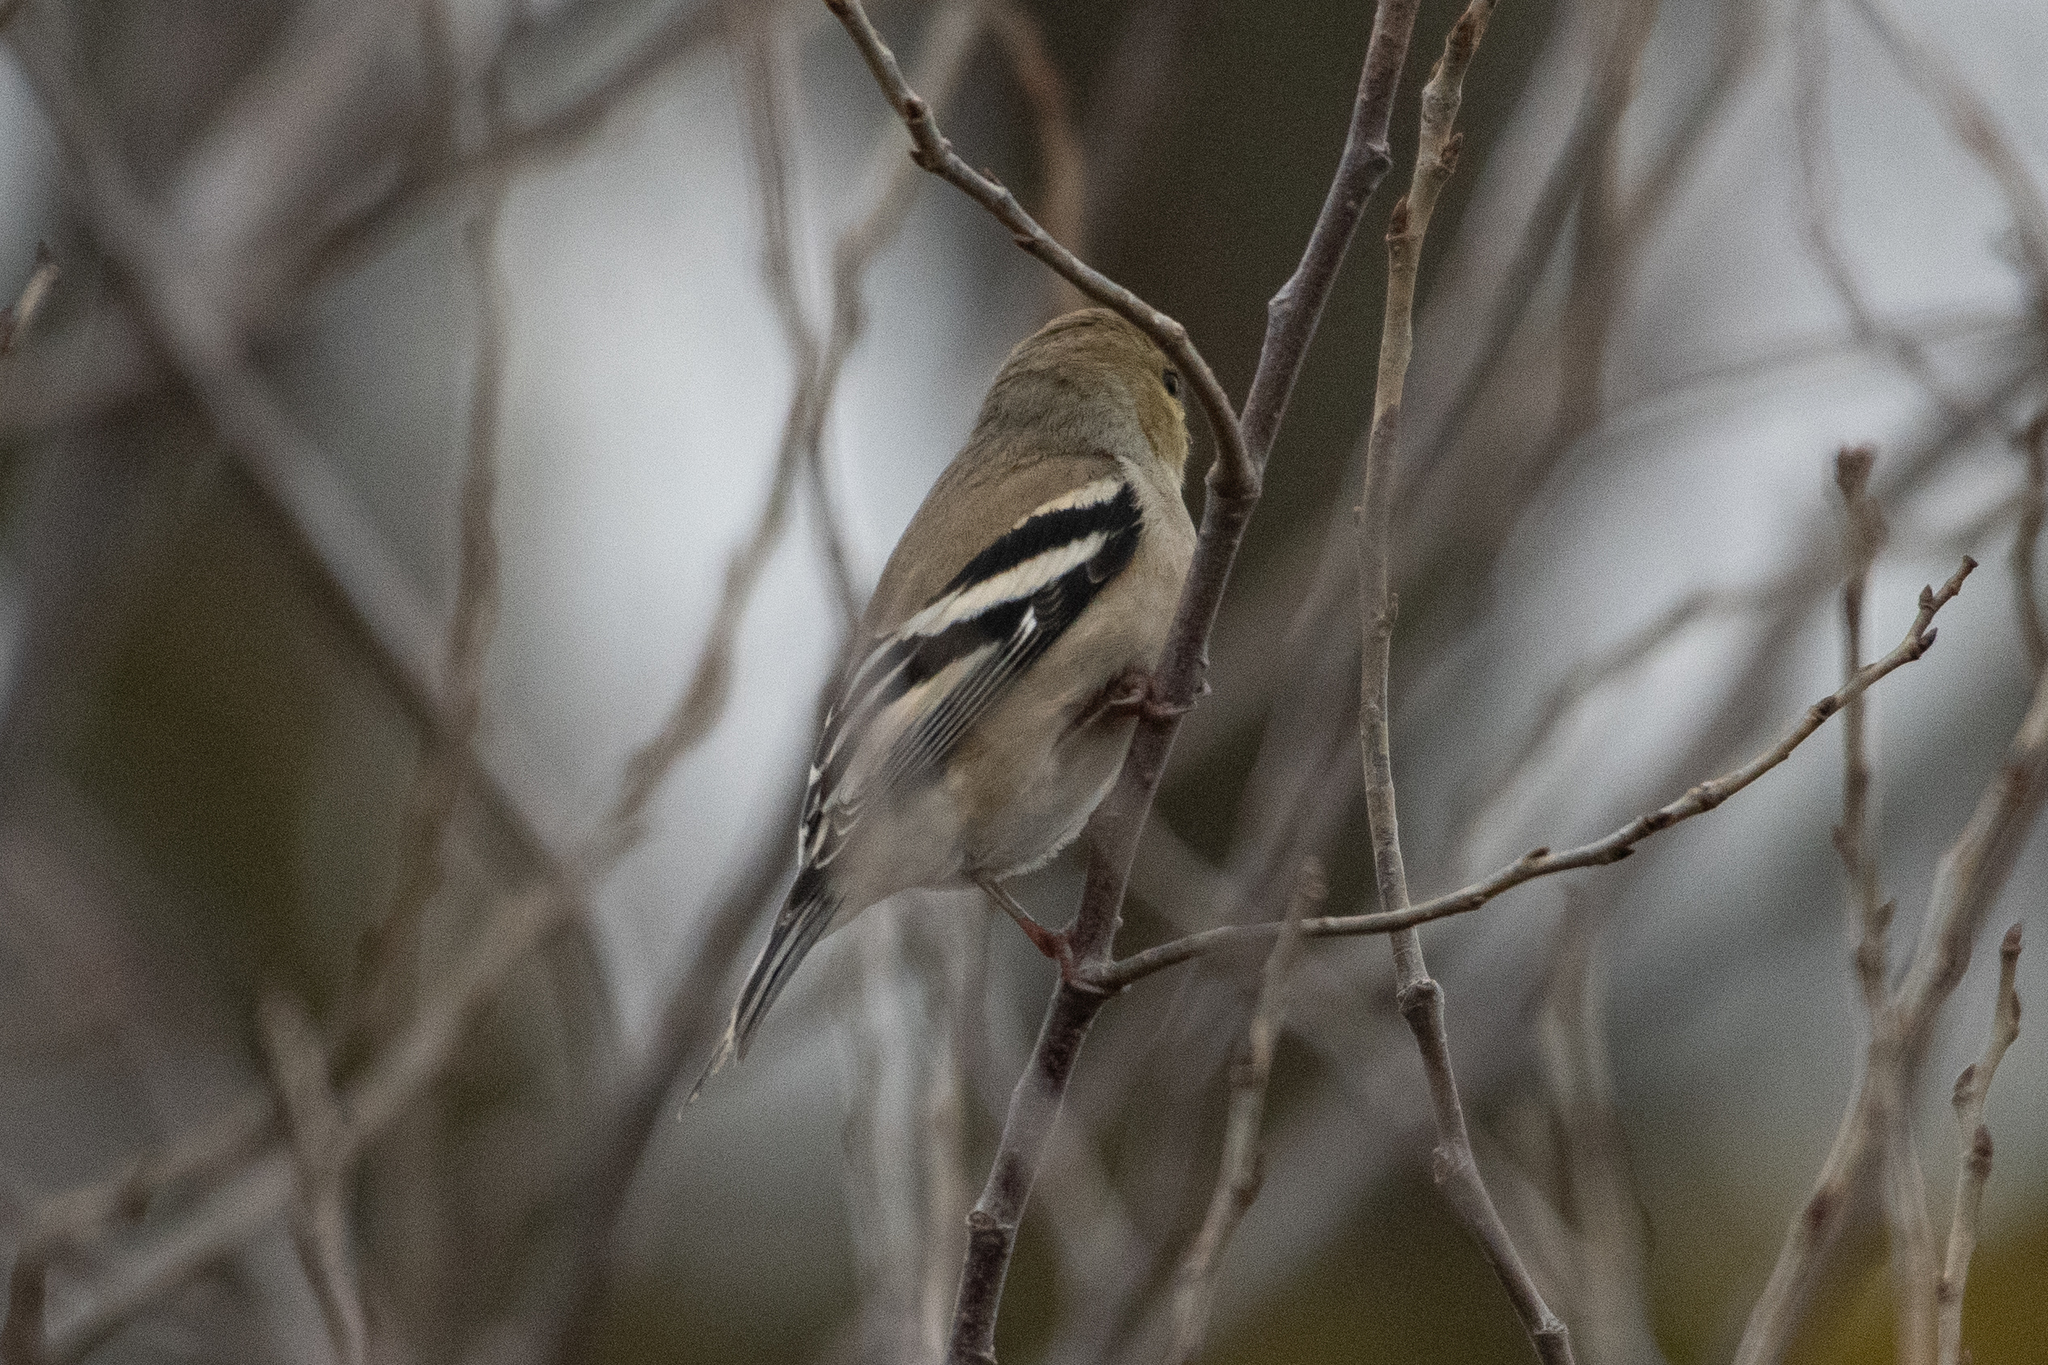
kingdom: Animalia
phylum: Chordata
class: Aves
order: Passeriformes
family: Fringillidae
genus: Spinus
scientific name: Spinus tristis
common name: American goldfinch
